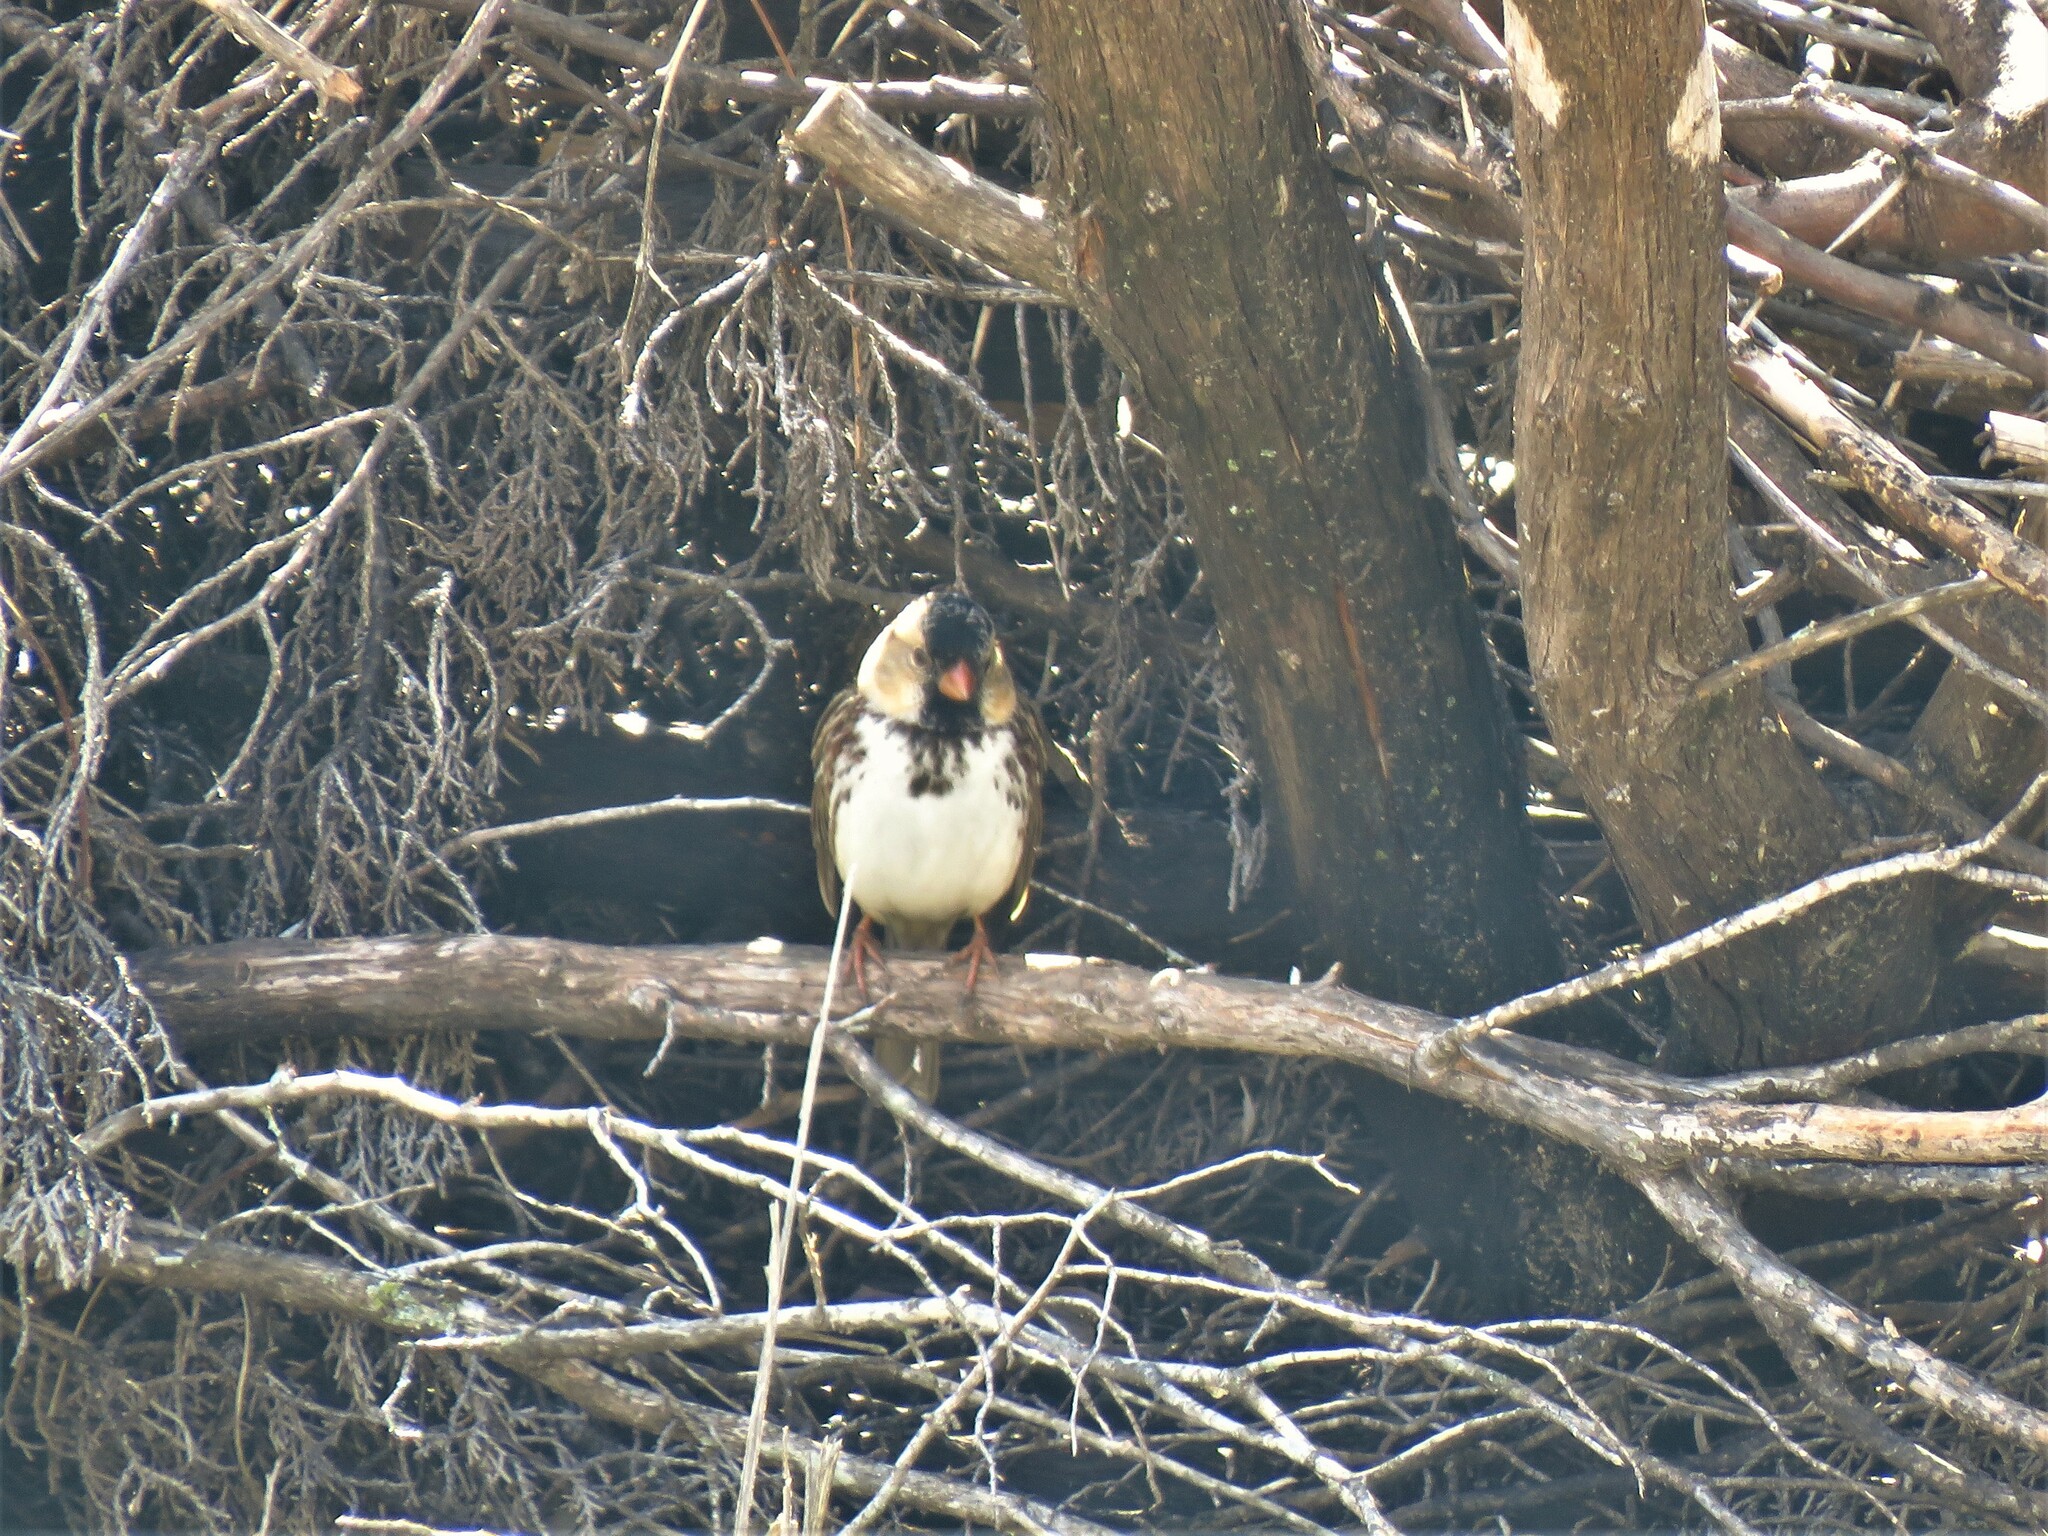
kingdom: Animalia
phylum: Chordata
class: Aves
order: Passeriformes
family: Passerellidae
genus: Zonotrichia
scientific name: Zonotrichia querula
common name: Harris's sparrow
